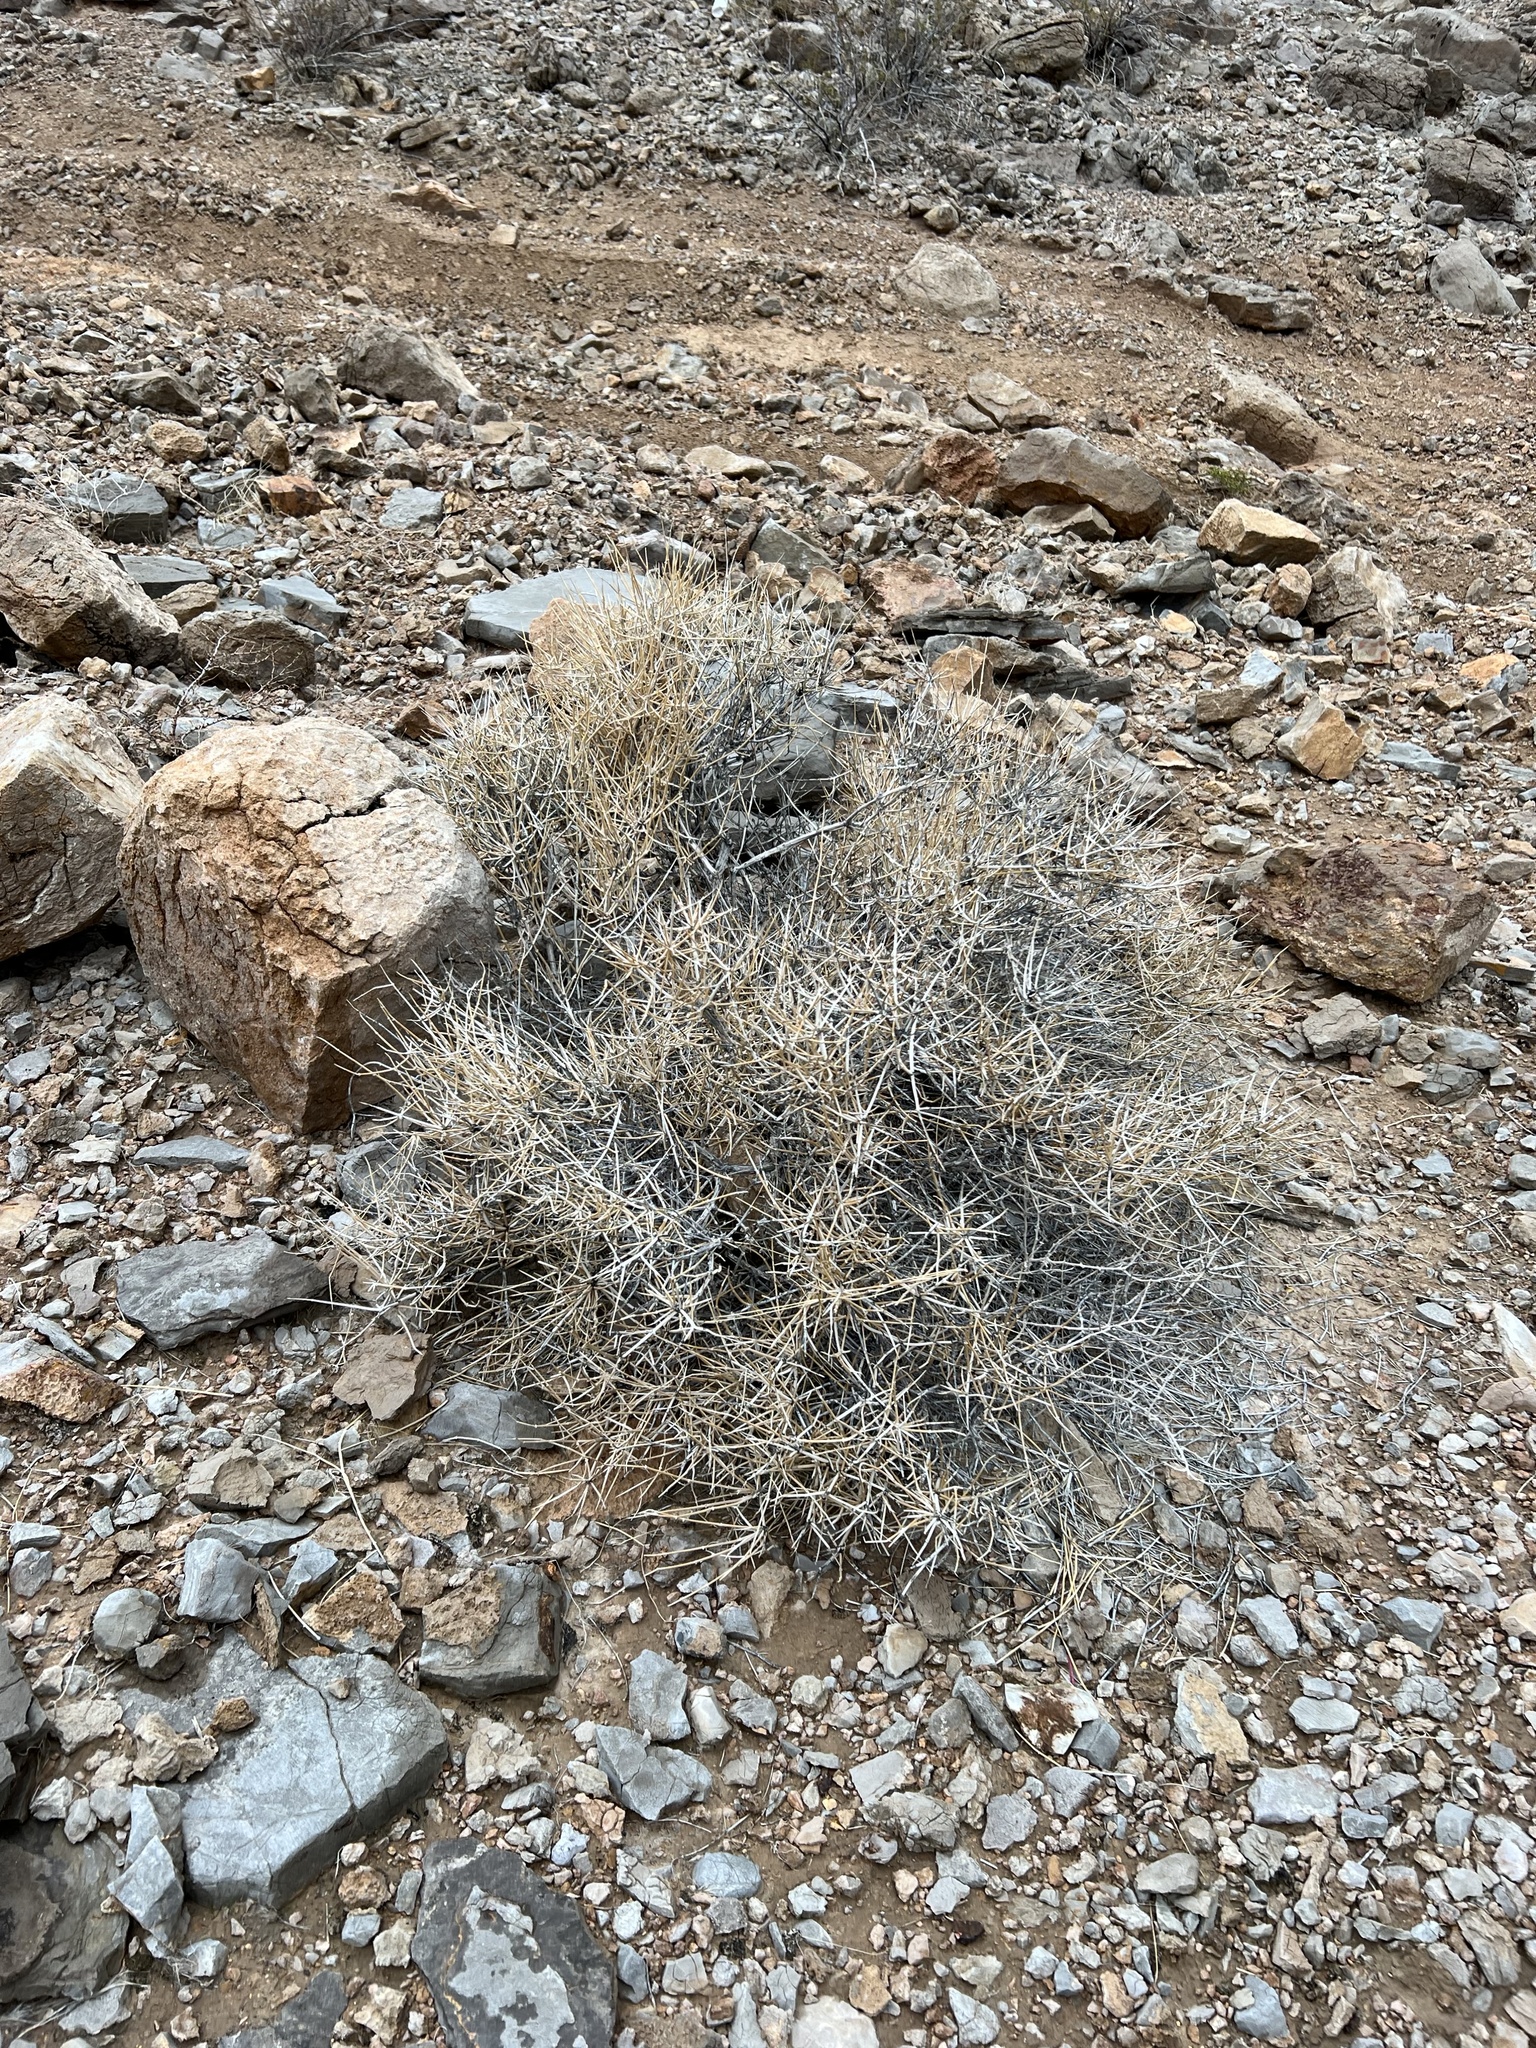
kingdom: Plantae
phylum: Tracheophyta
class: Gnetopsida
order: Ephedrales
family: Ephedraceae
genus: Ephedra
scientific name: Ephedra nevadensis
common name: Gray ephedra
